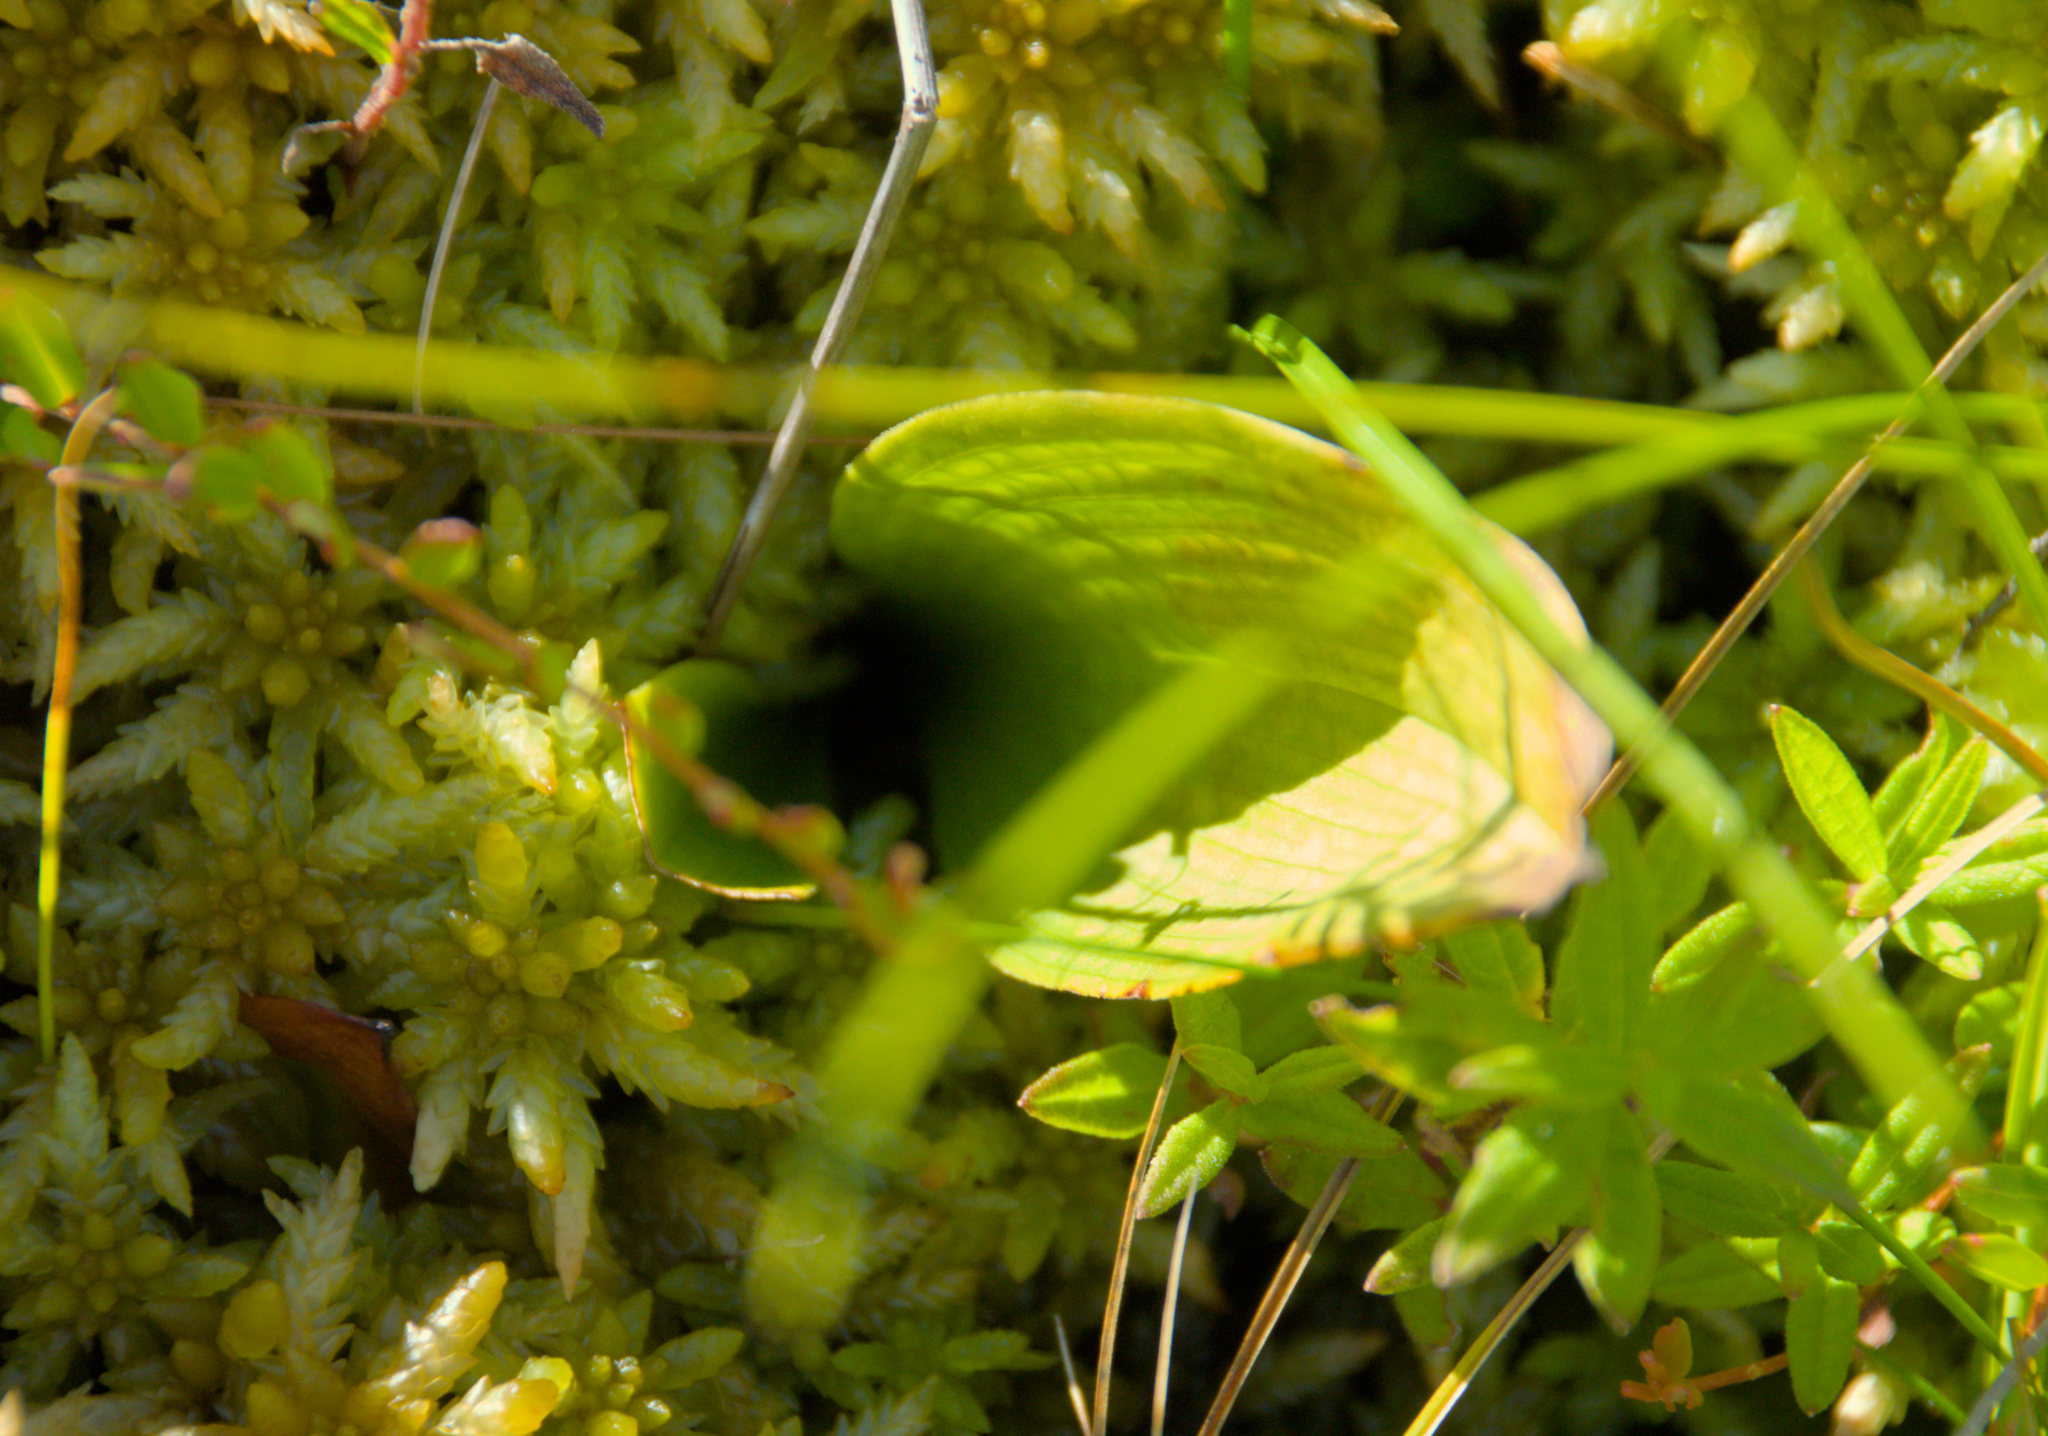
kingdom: Plantae
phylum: Tracheophyta
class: Liliopsida
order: Asparagales
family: Asparagaceae
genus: Maianthemum
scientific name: Maianthemum trifolium
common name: Swamp false solomon's seal
